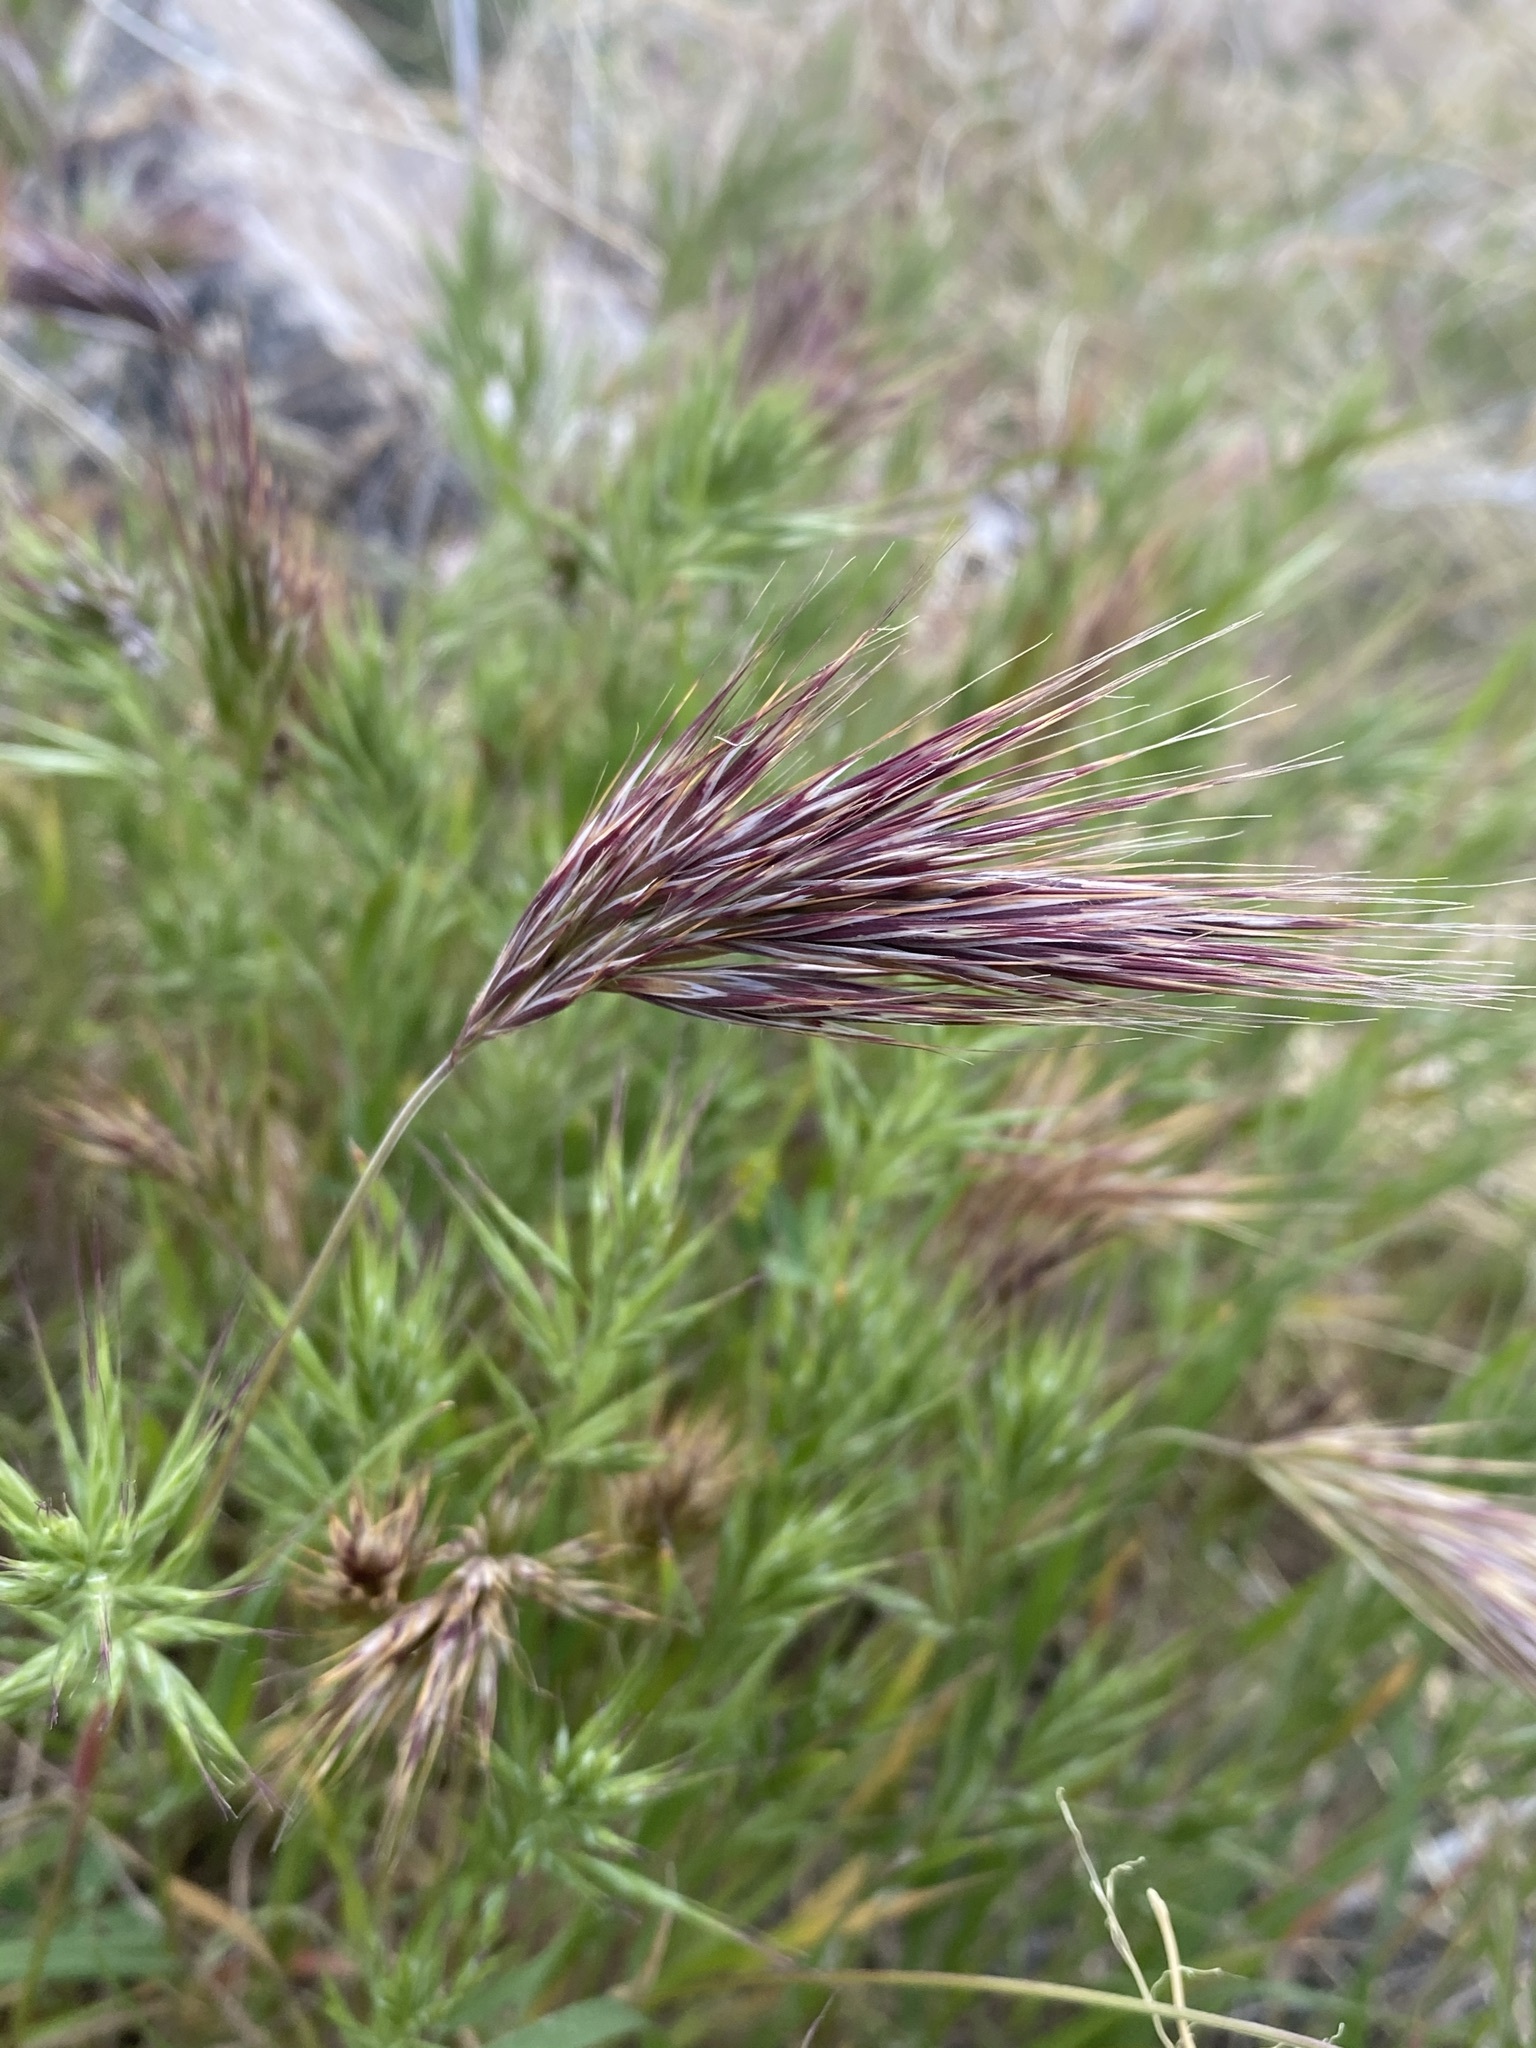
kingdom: Plantae
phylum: Tracheophyta
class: Liliopsida
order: Poales
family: Poaceae
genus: Bromus
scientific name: Bromus rubens
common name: Red brome
